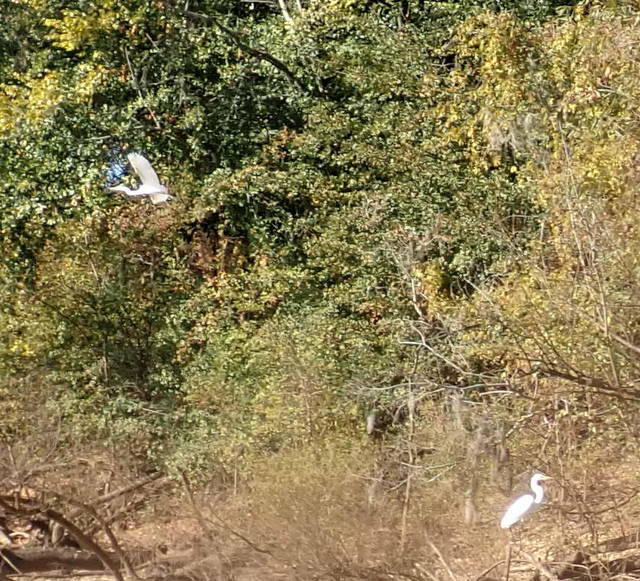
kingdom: Animalia
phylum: Chordata
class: Aves
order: Pelecaniformes
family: Ardeidae
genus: Ardea
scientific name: Ardea alba
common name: Great egret
